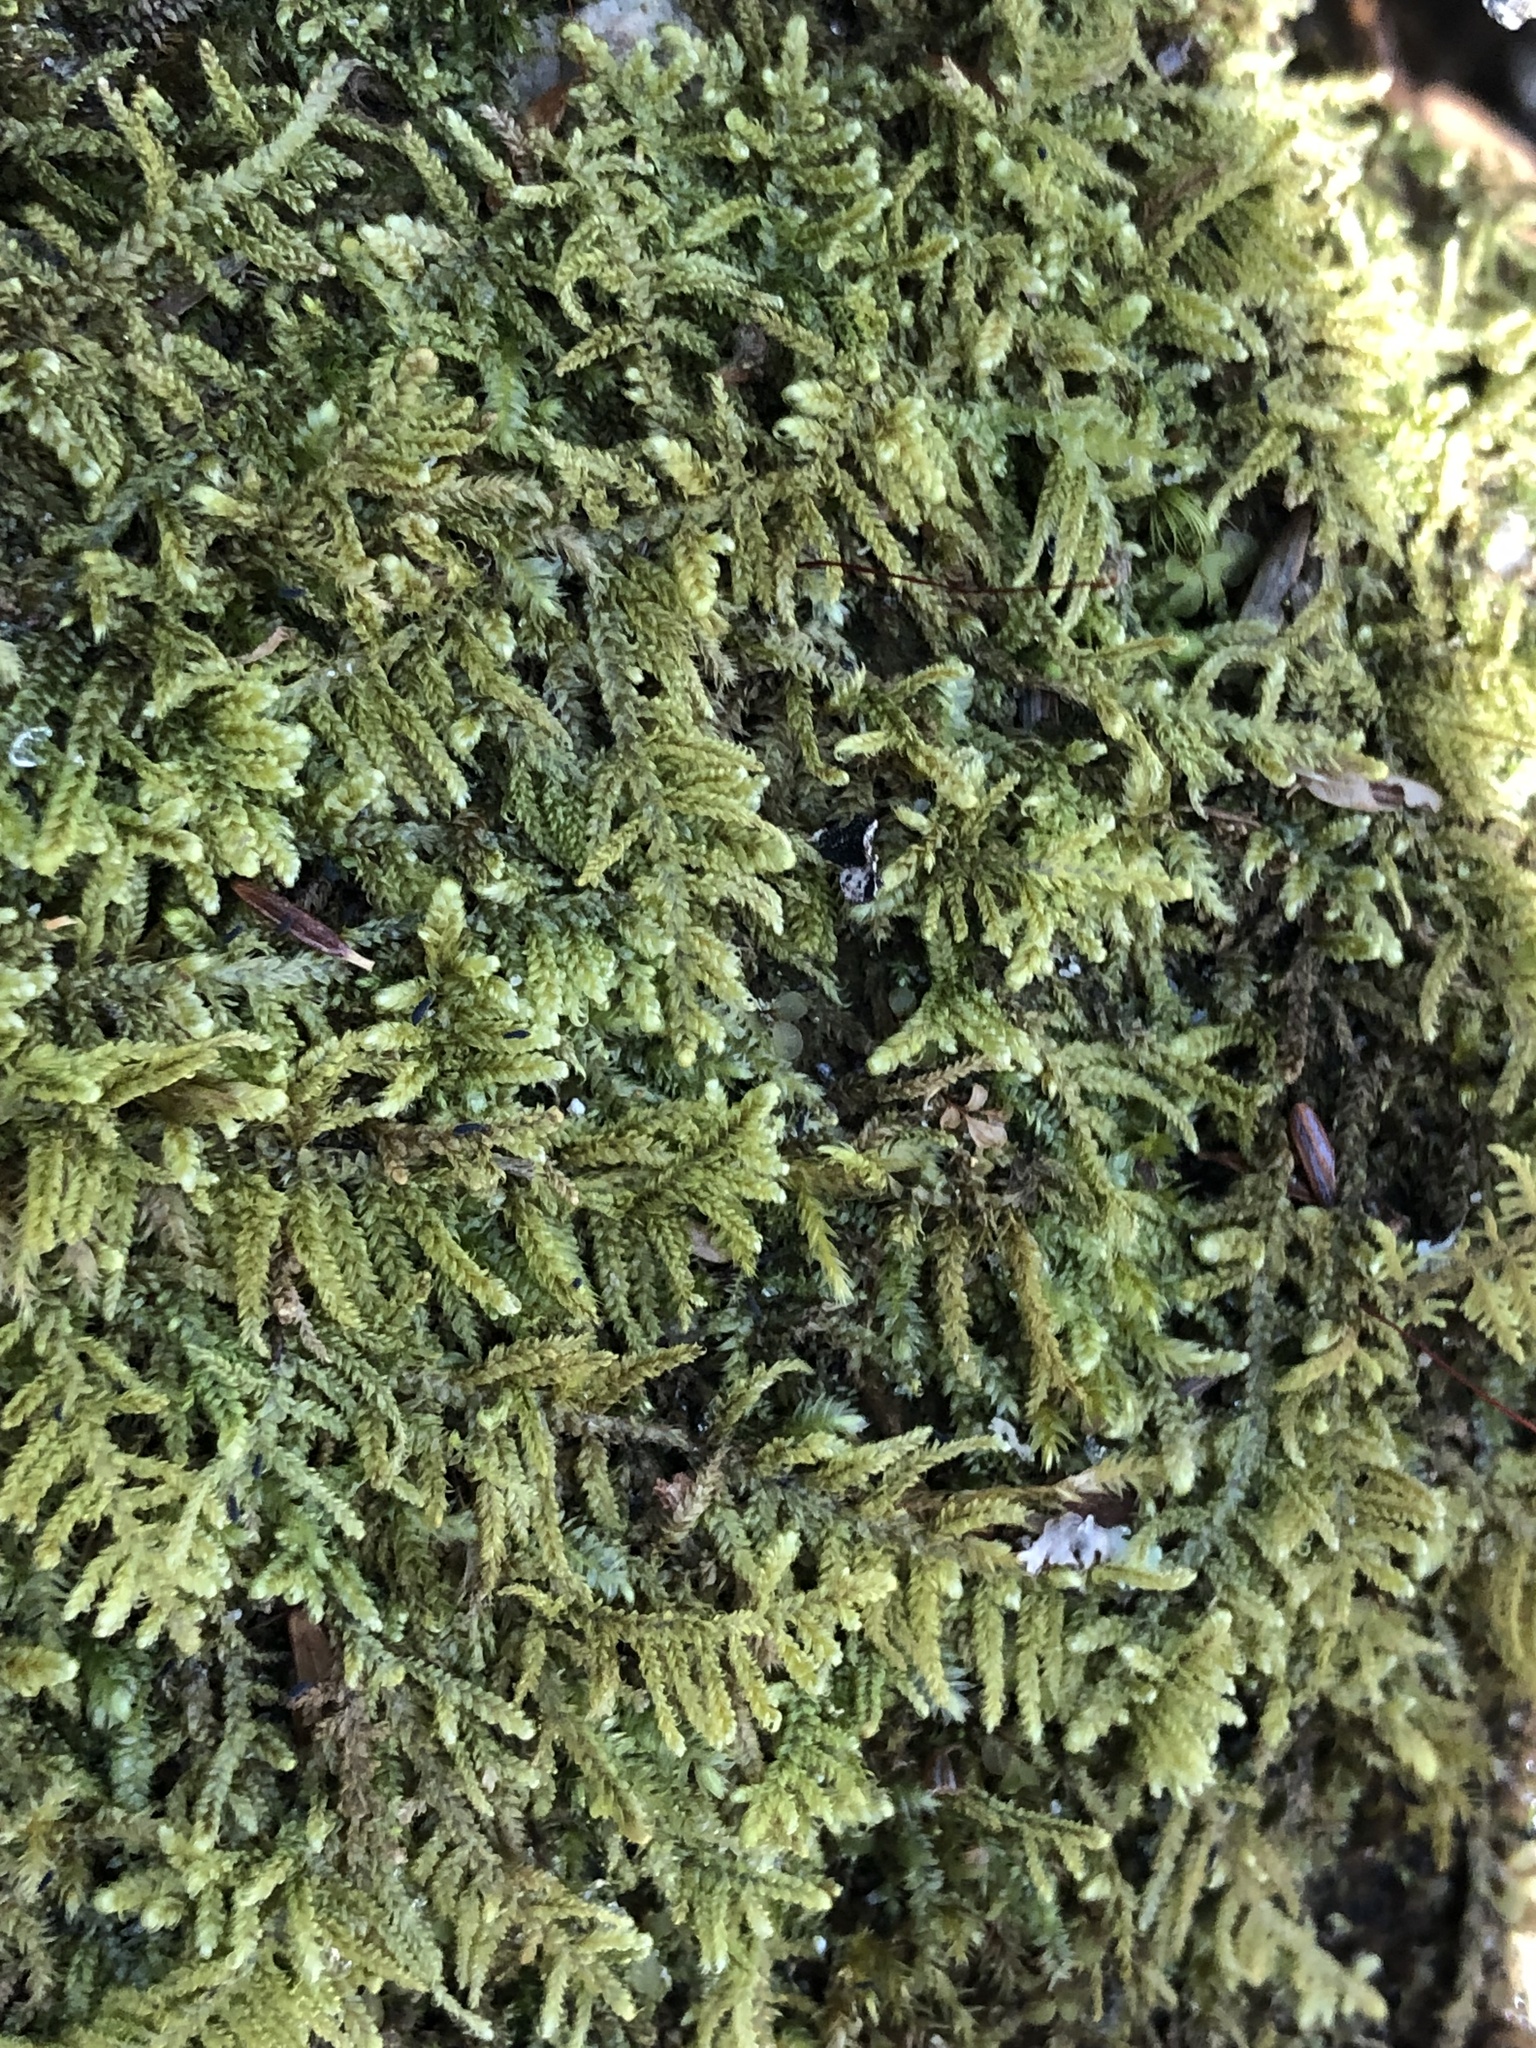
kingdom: Plantae
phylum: Bryophyta
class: Bryopsida
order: Hypnales
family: Callicladiaceae
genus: Callicladium
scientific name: Callicladium imponens
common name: Brocade moss
